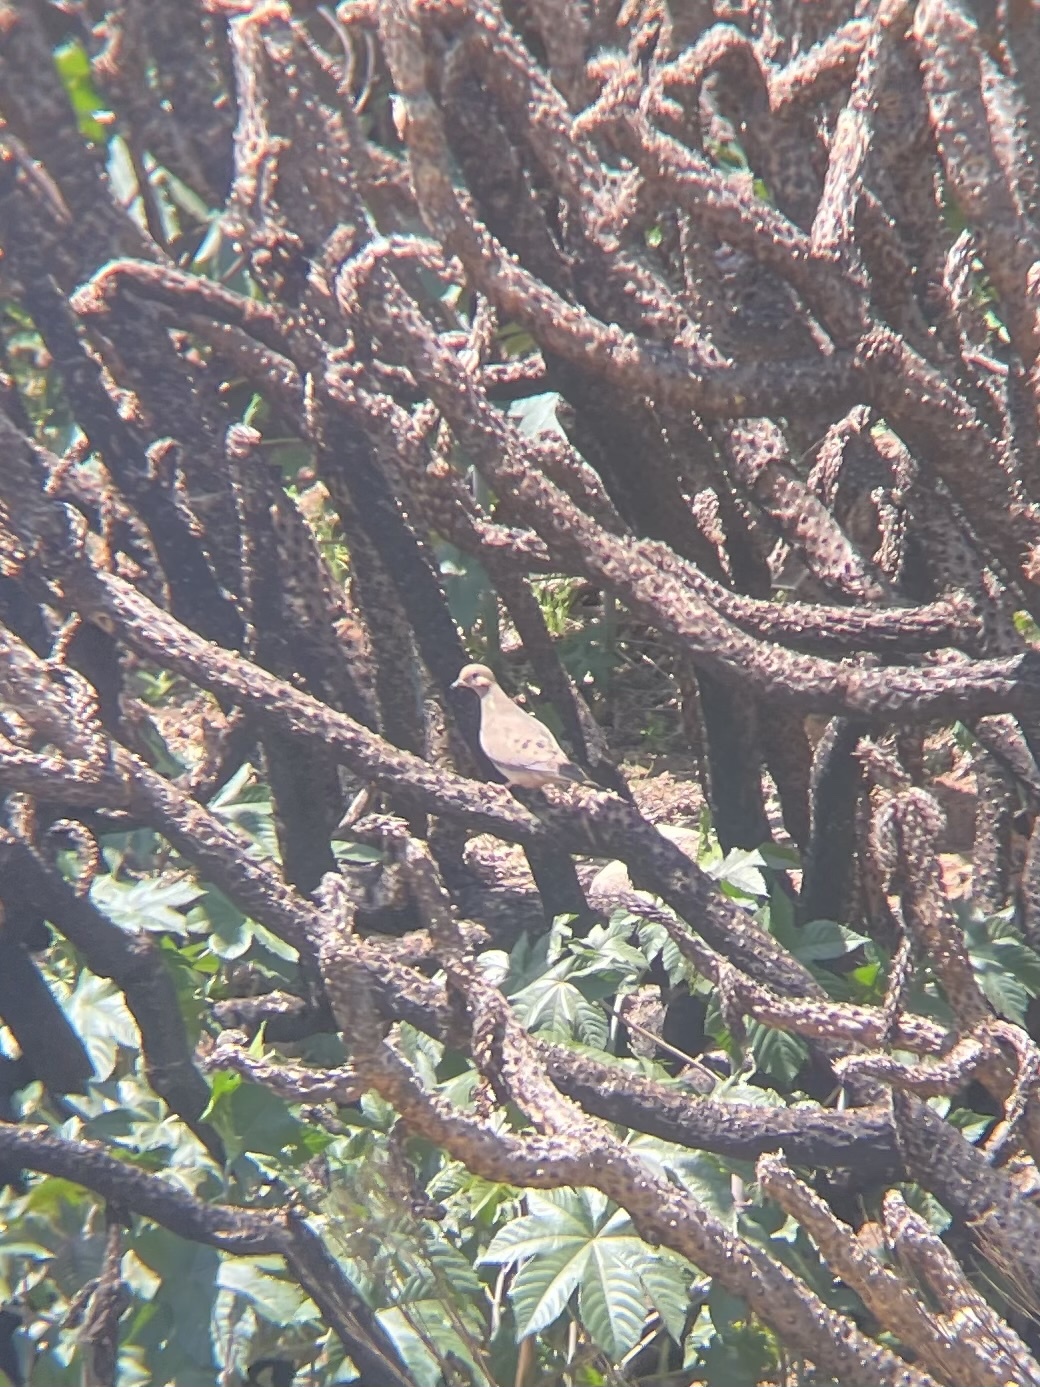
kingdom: Animalia
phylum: Chordata
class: Aves
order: Columbiformes
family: Columbidae
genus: Zenaida
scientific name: Zenaida macroura
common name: Mourning dove
